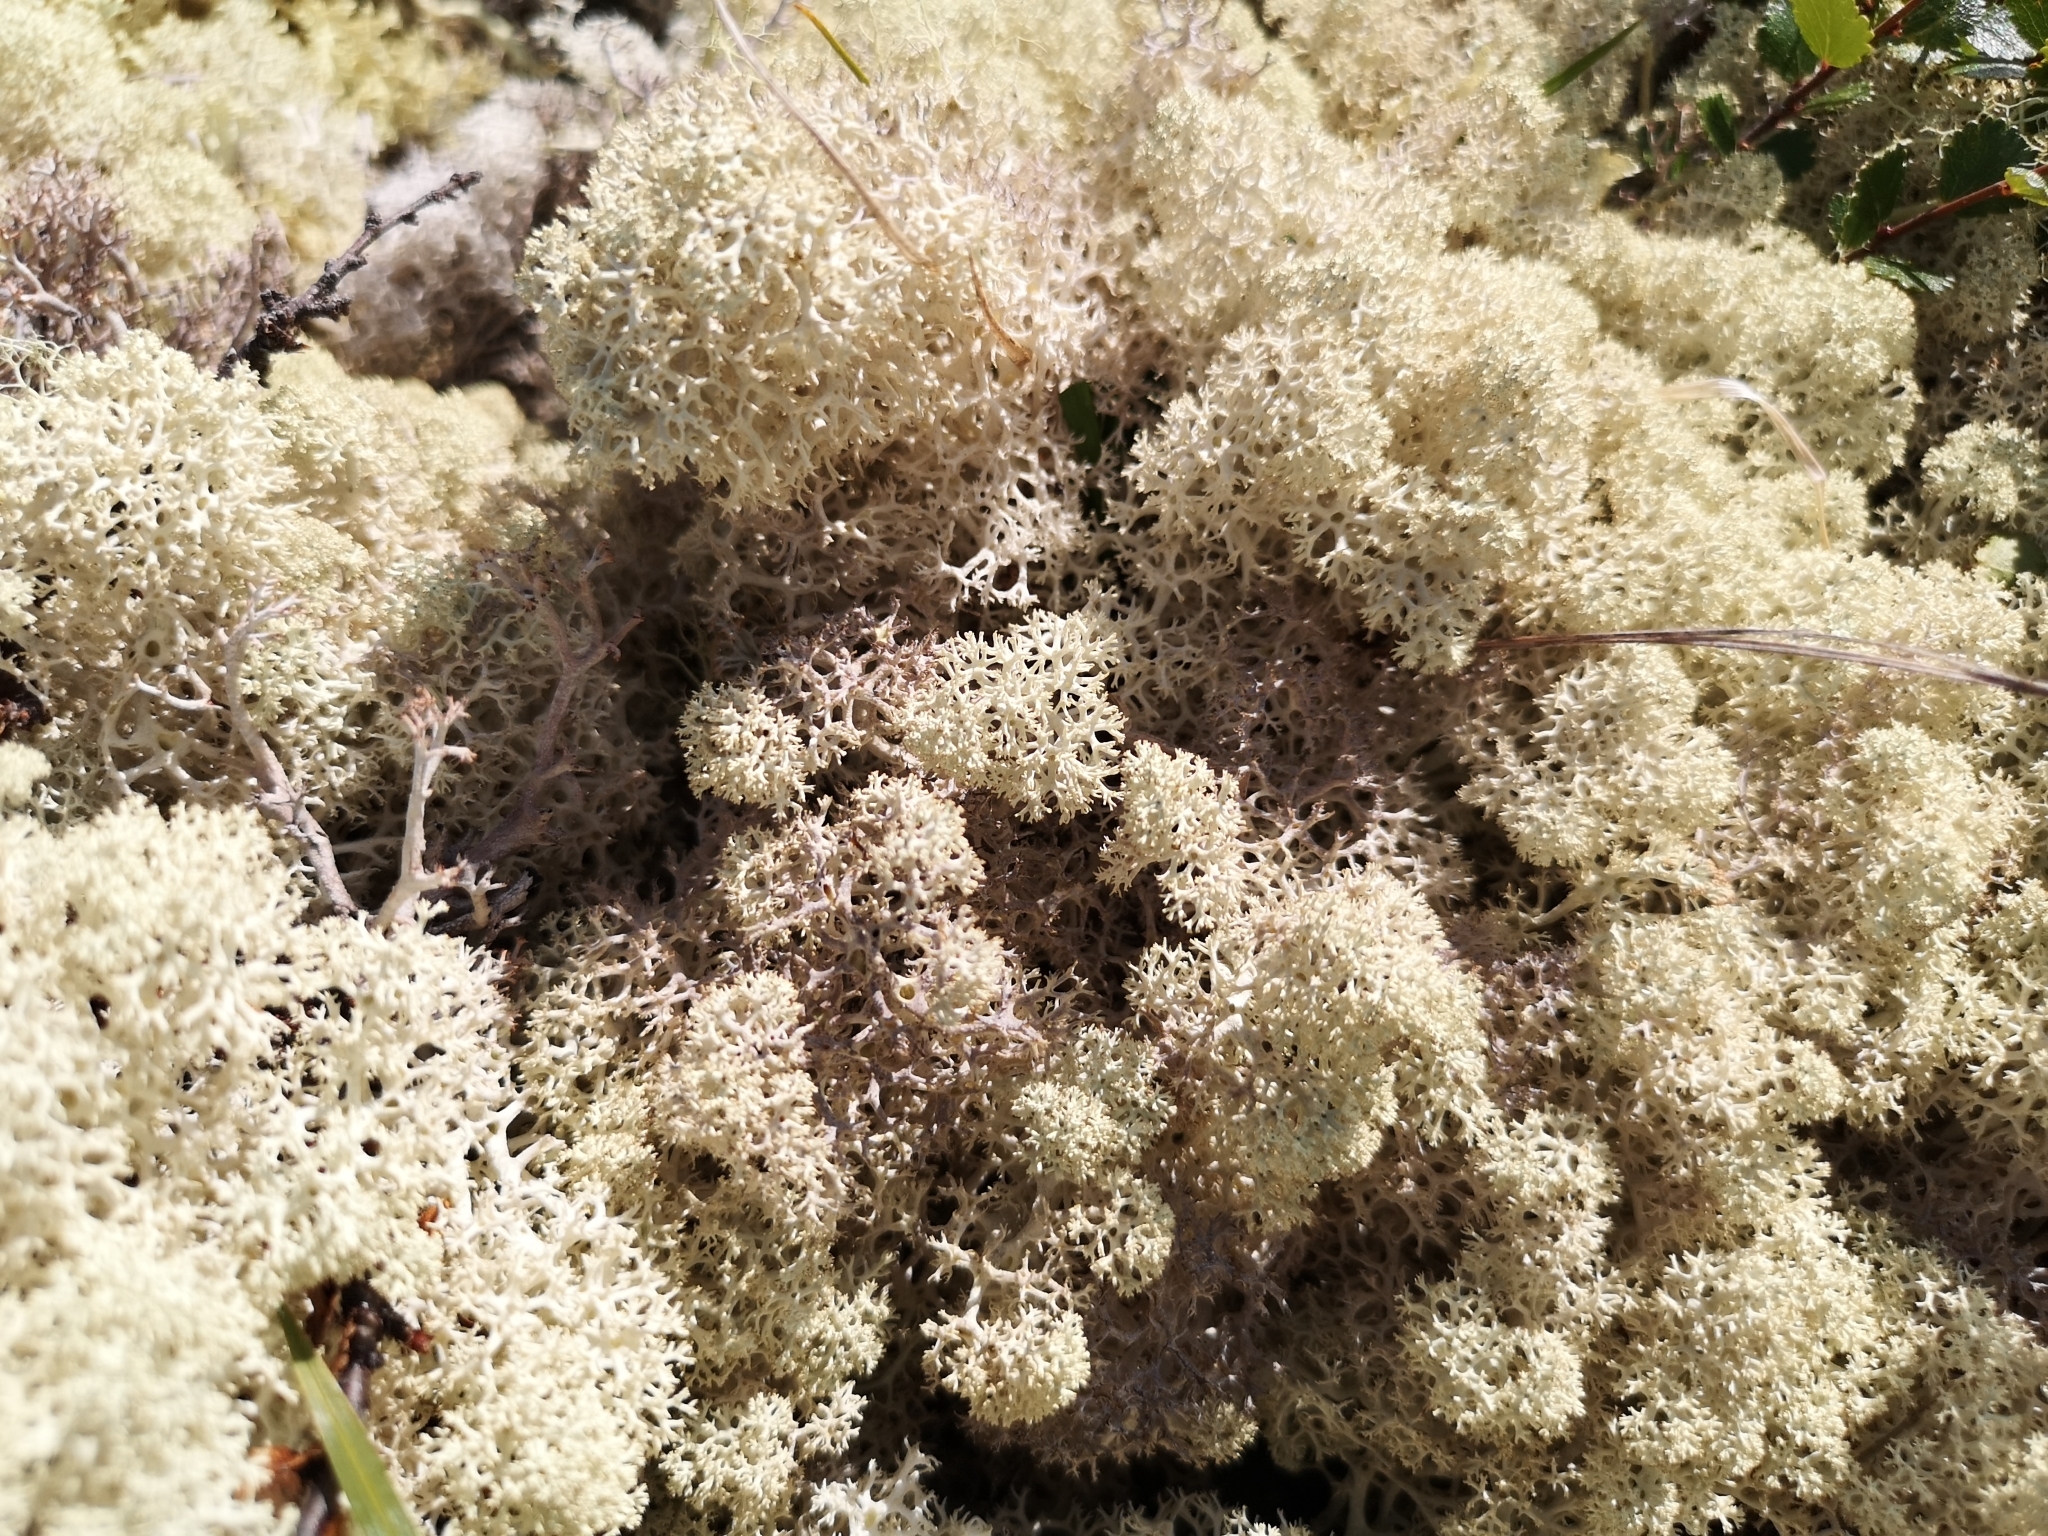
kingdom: Fungi
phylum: Ascomycota
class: Lecanoromycetes
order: Lecanorales
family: Cladoniaceae
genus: Cladonia
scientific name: Cladonia stellaris
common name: Star-tipped reindeer lichen
